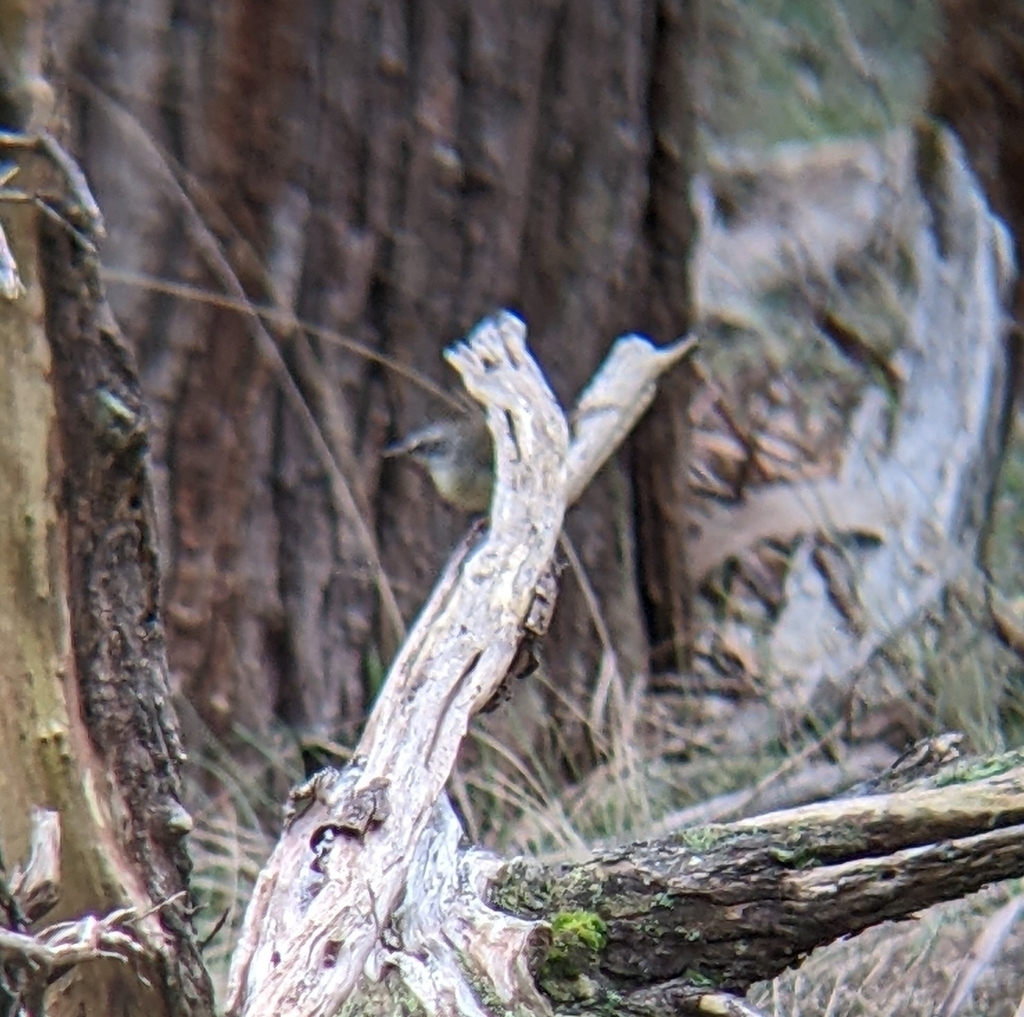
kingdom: Animalia
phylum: Chordata
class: Aves
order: Passeriformes
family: Acanthizidae
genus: Sericornis
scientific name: Sericornis frontalis
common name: White-browed scrubwren
